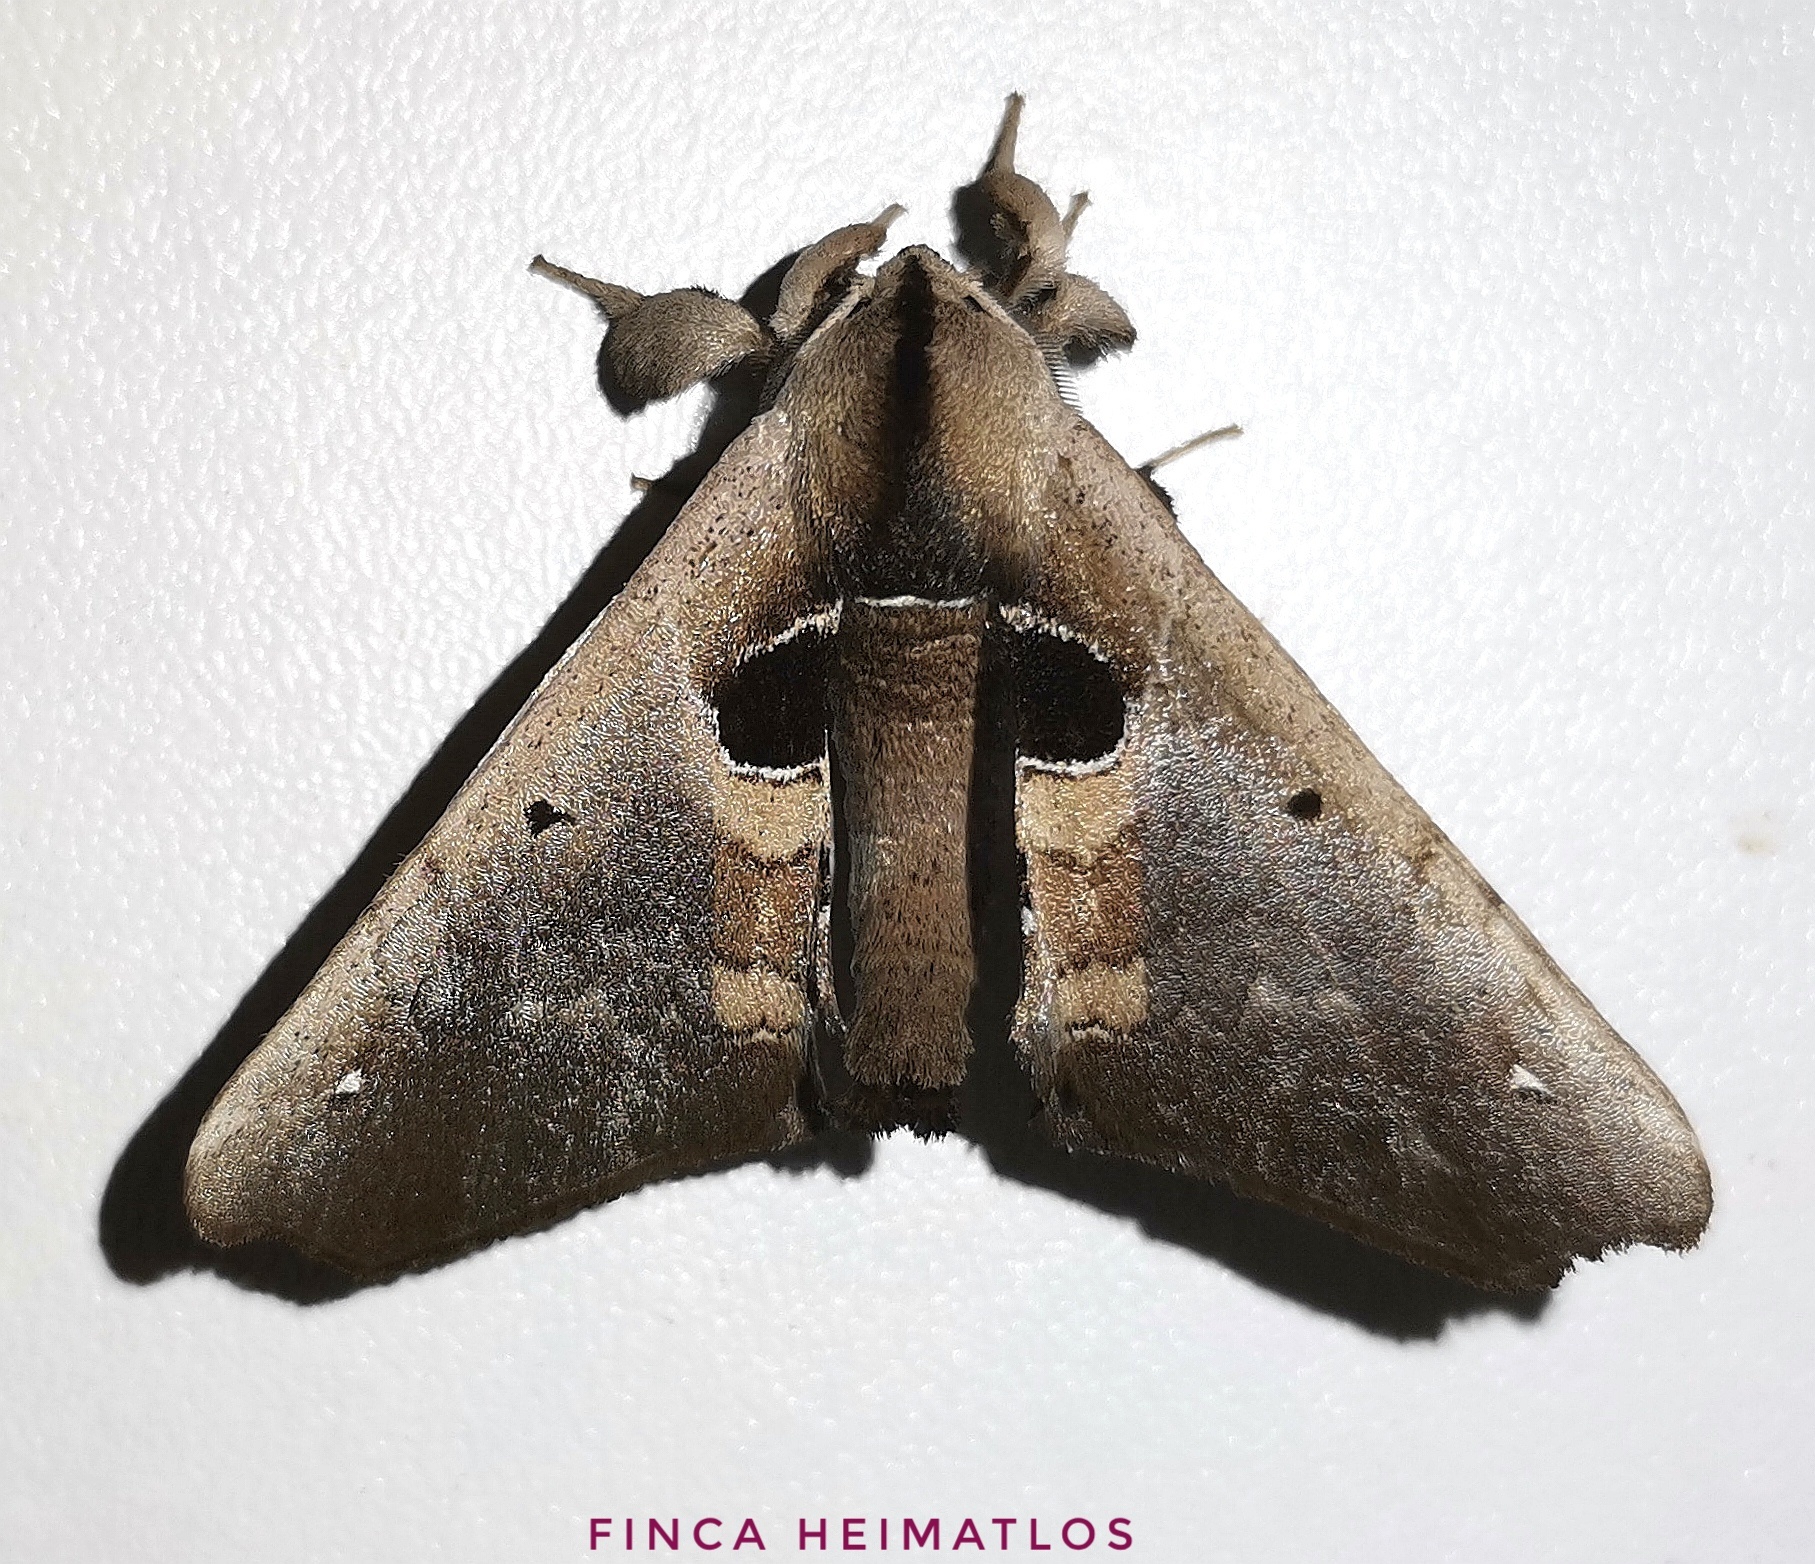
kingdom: Animalia
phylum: Arthropoda
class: Insecta
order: Lepidoptera
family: Apatelodidae
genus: Hygrochroa
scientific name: Hygrochroa Apatelodes cirna
